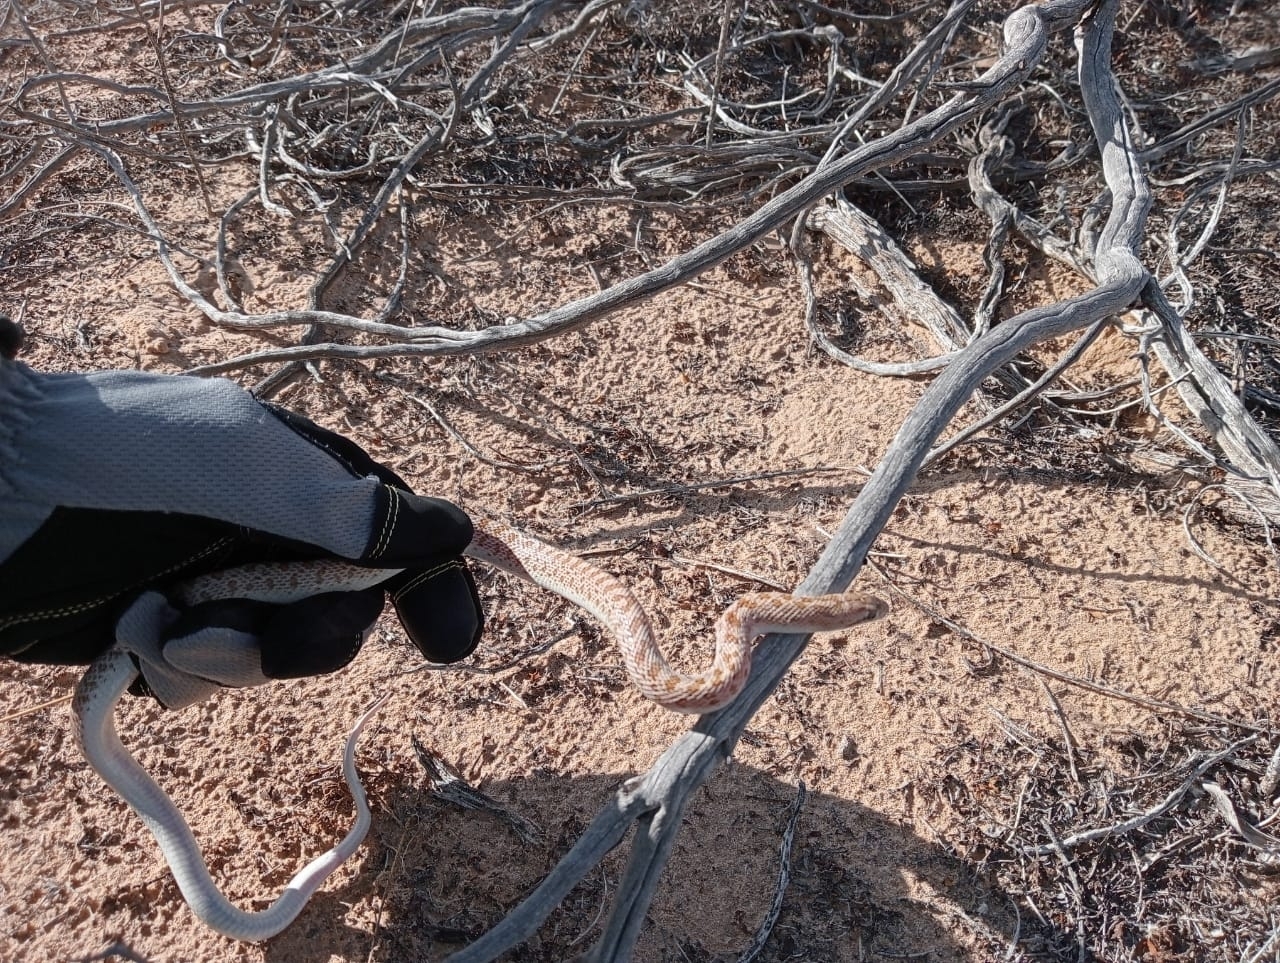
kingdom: Animalia
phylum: Chordata
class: Squamata
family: Colubridae
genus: Arizona
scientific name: Arizona elegans
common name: Glossy snake
